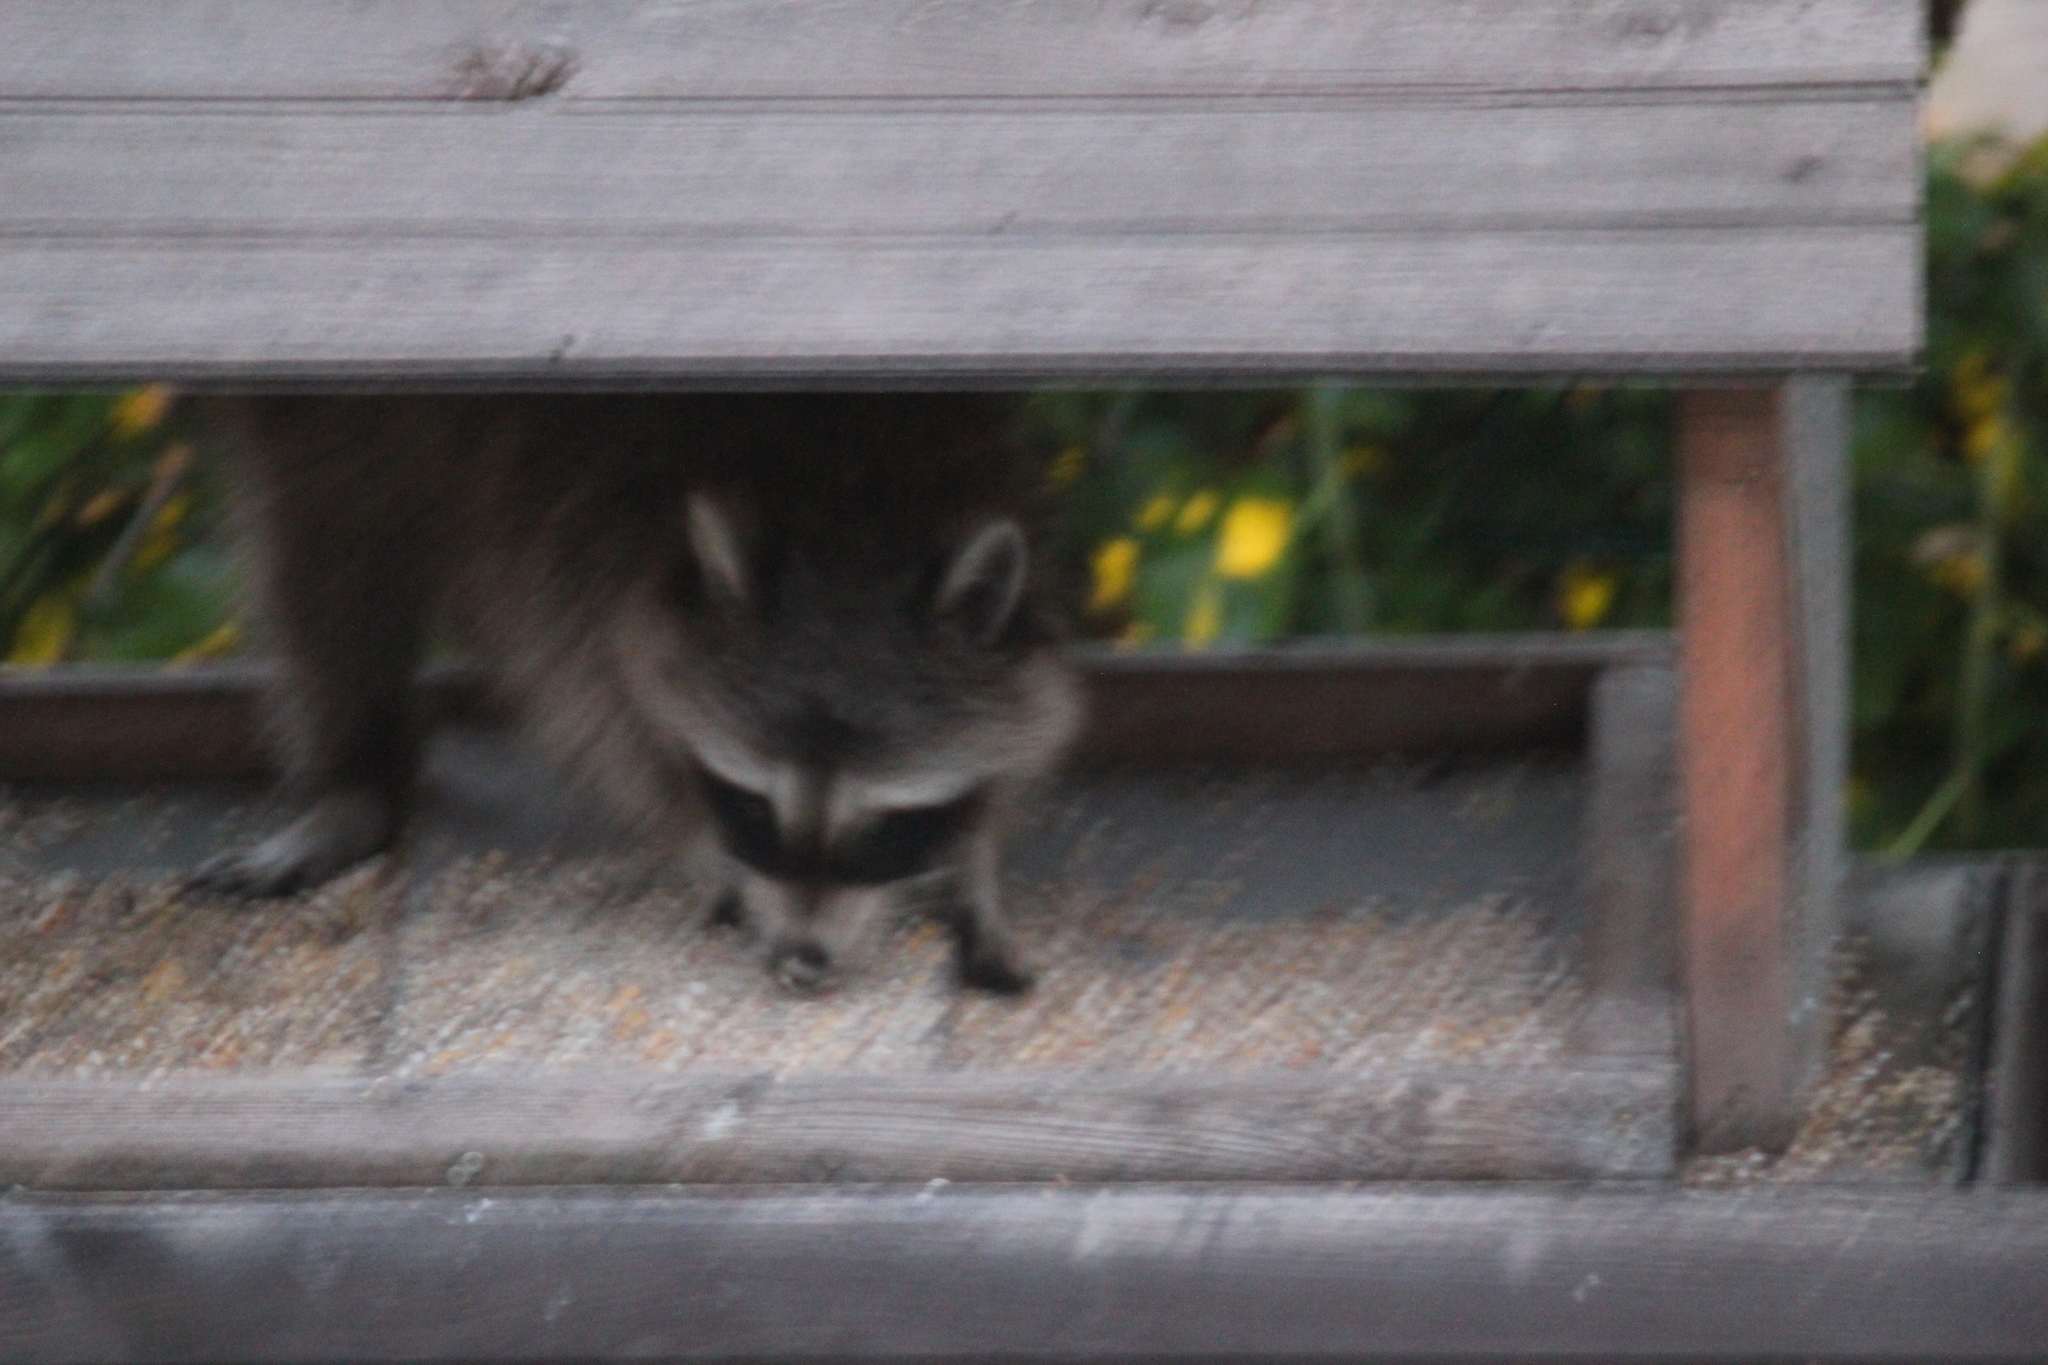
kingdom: Animalia
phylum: Chordata
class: Mammalia
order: Carnivora
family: Procyonidae
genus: Procyon
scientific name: Procyon lotor
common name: Raccoon
